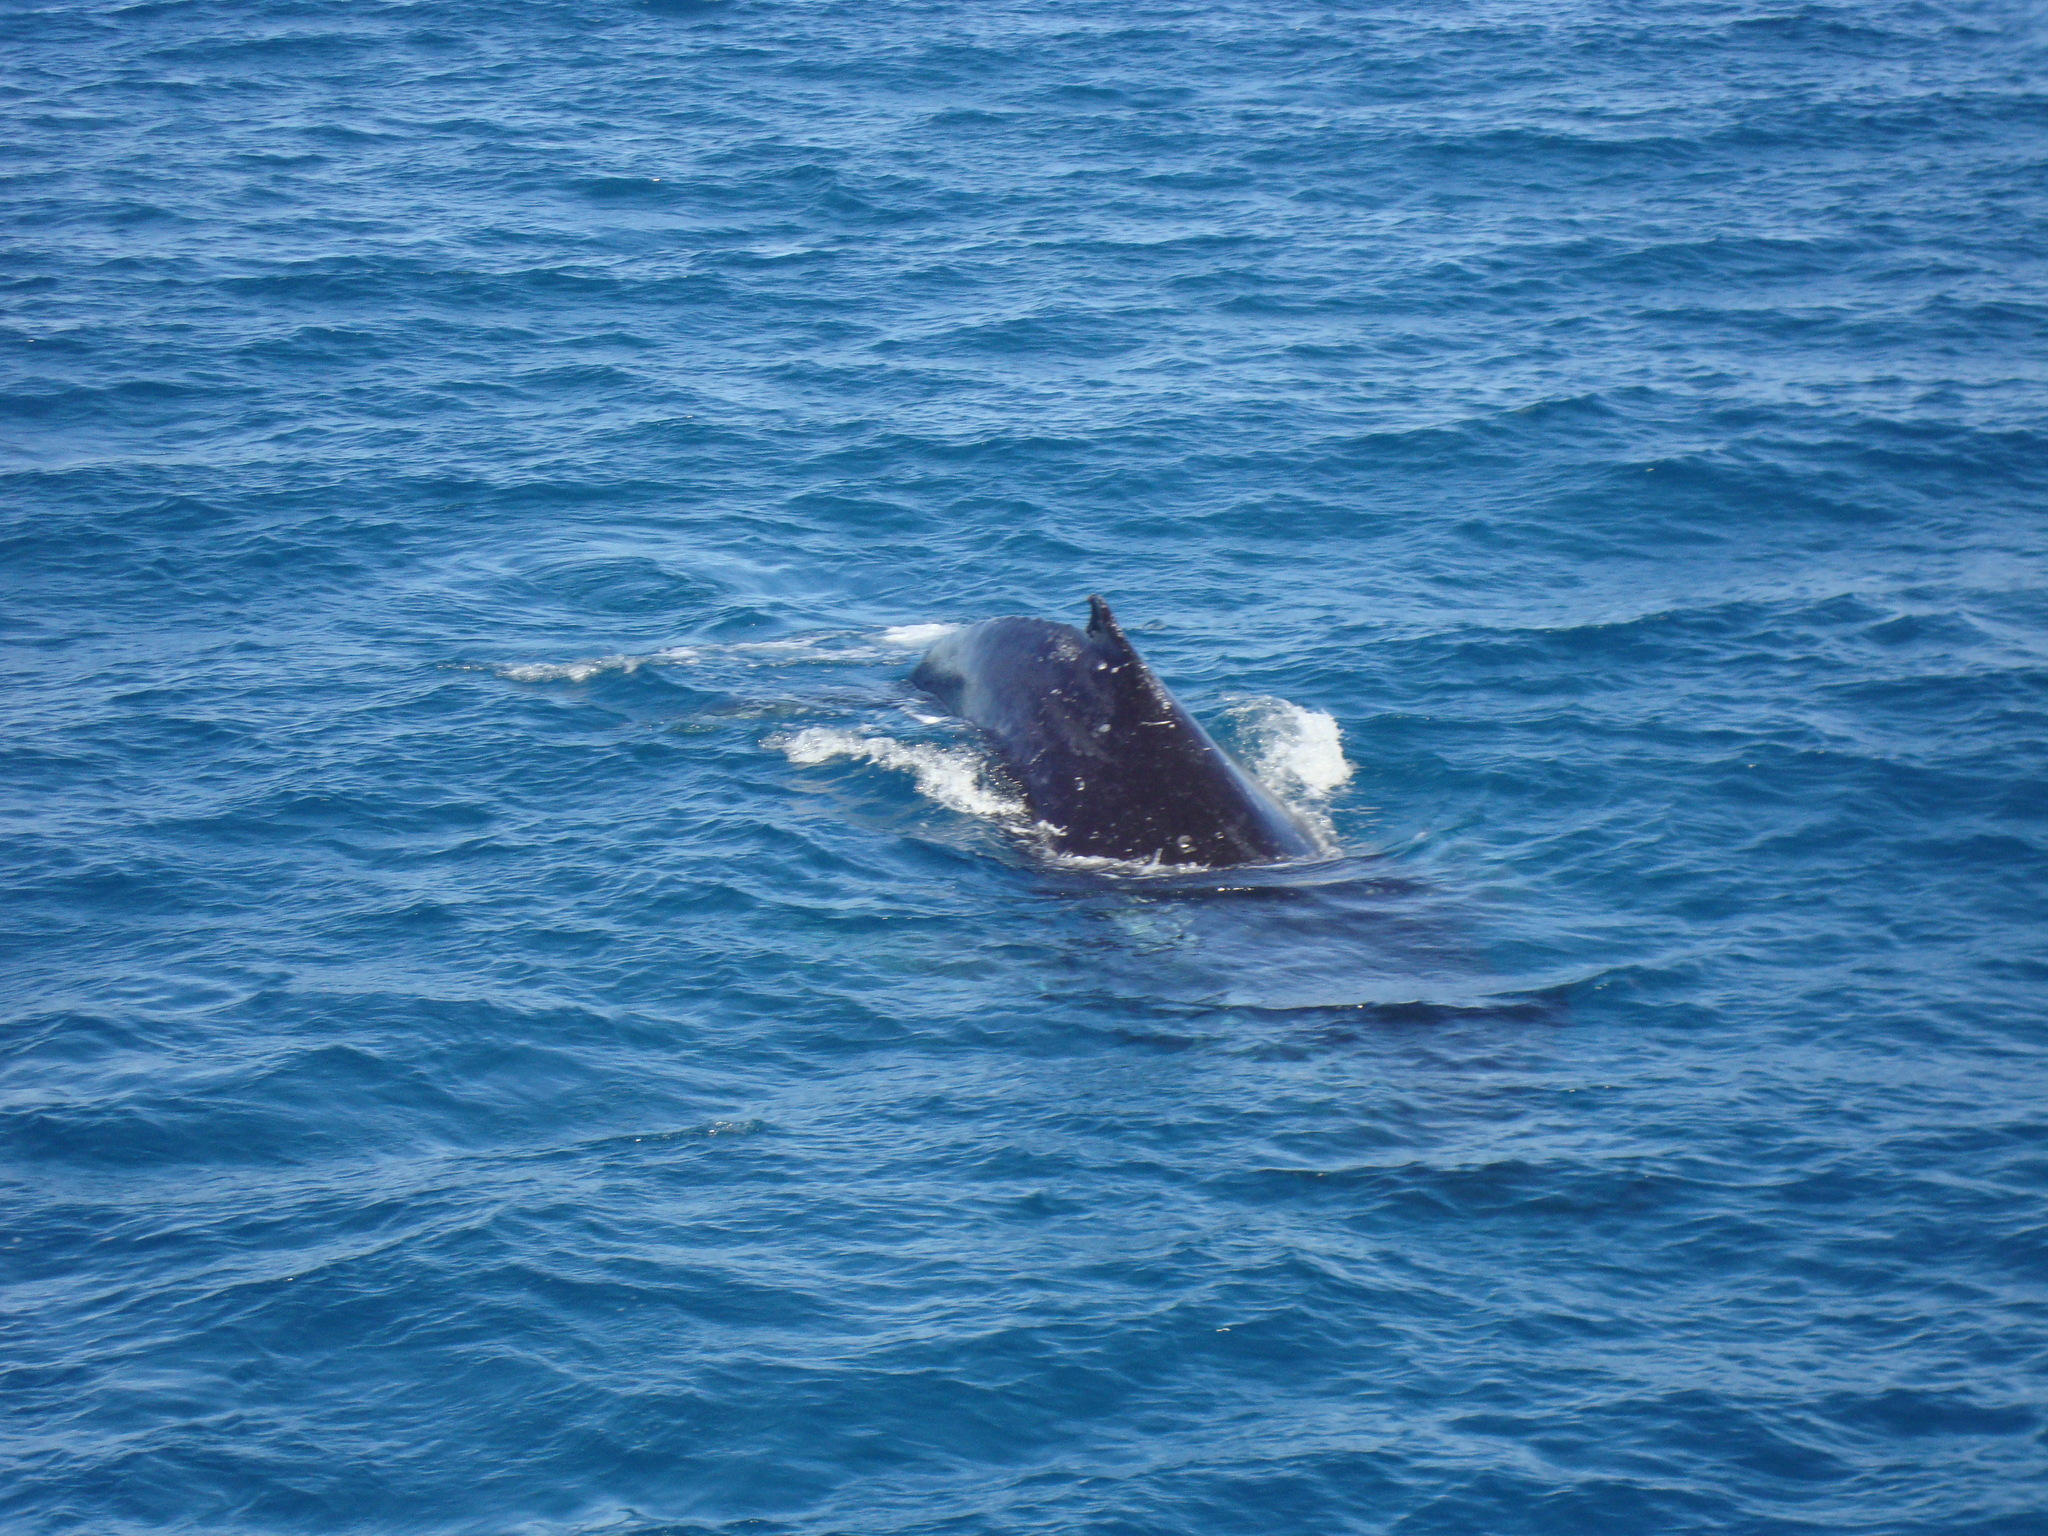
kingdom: Animalia
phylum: Chordata
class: Mammalia
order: Cetacea
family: Balaenopteridae
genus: Megaptera
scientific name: Megaptera novaeangliae
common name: Humpback whale
